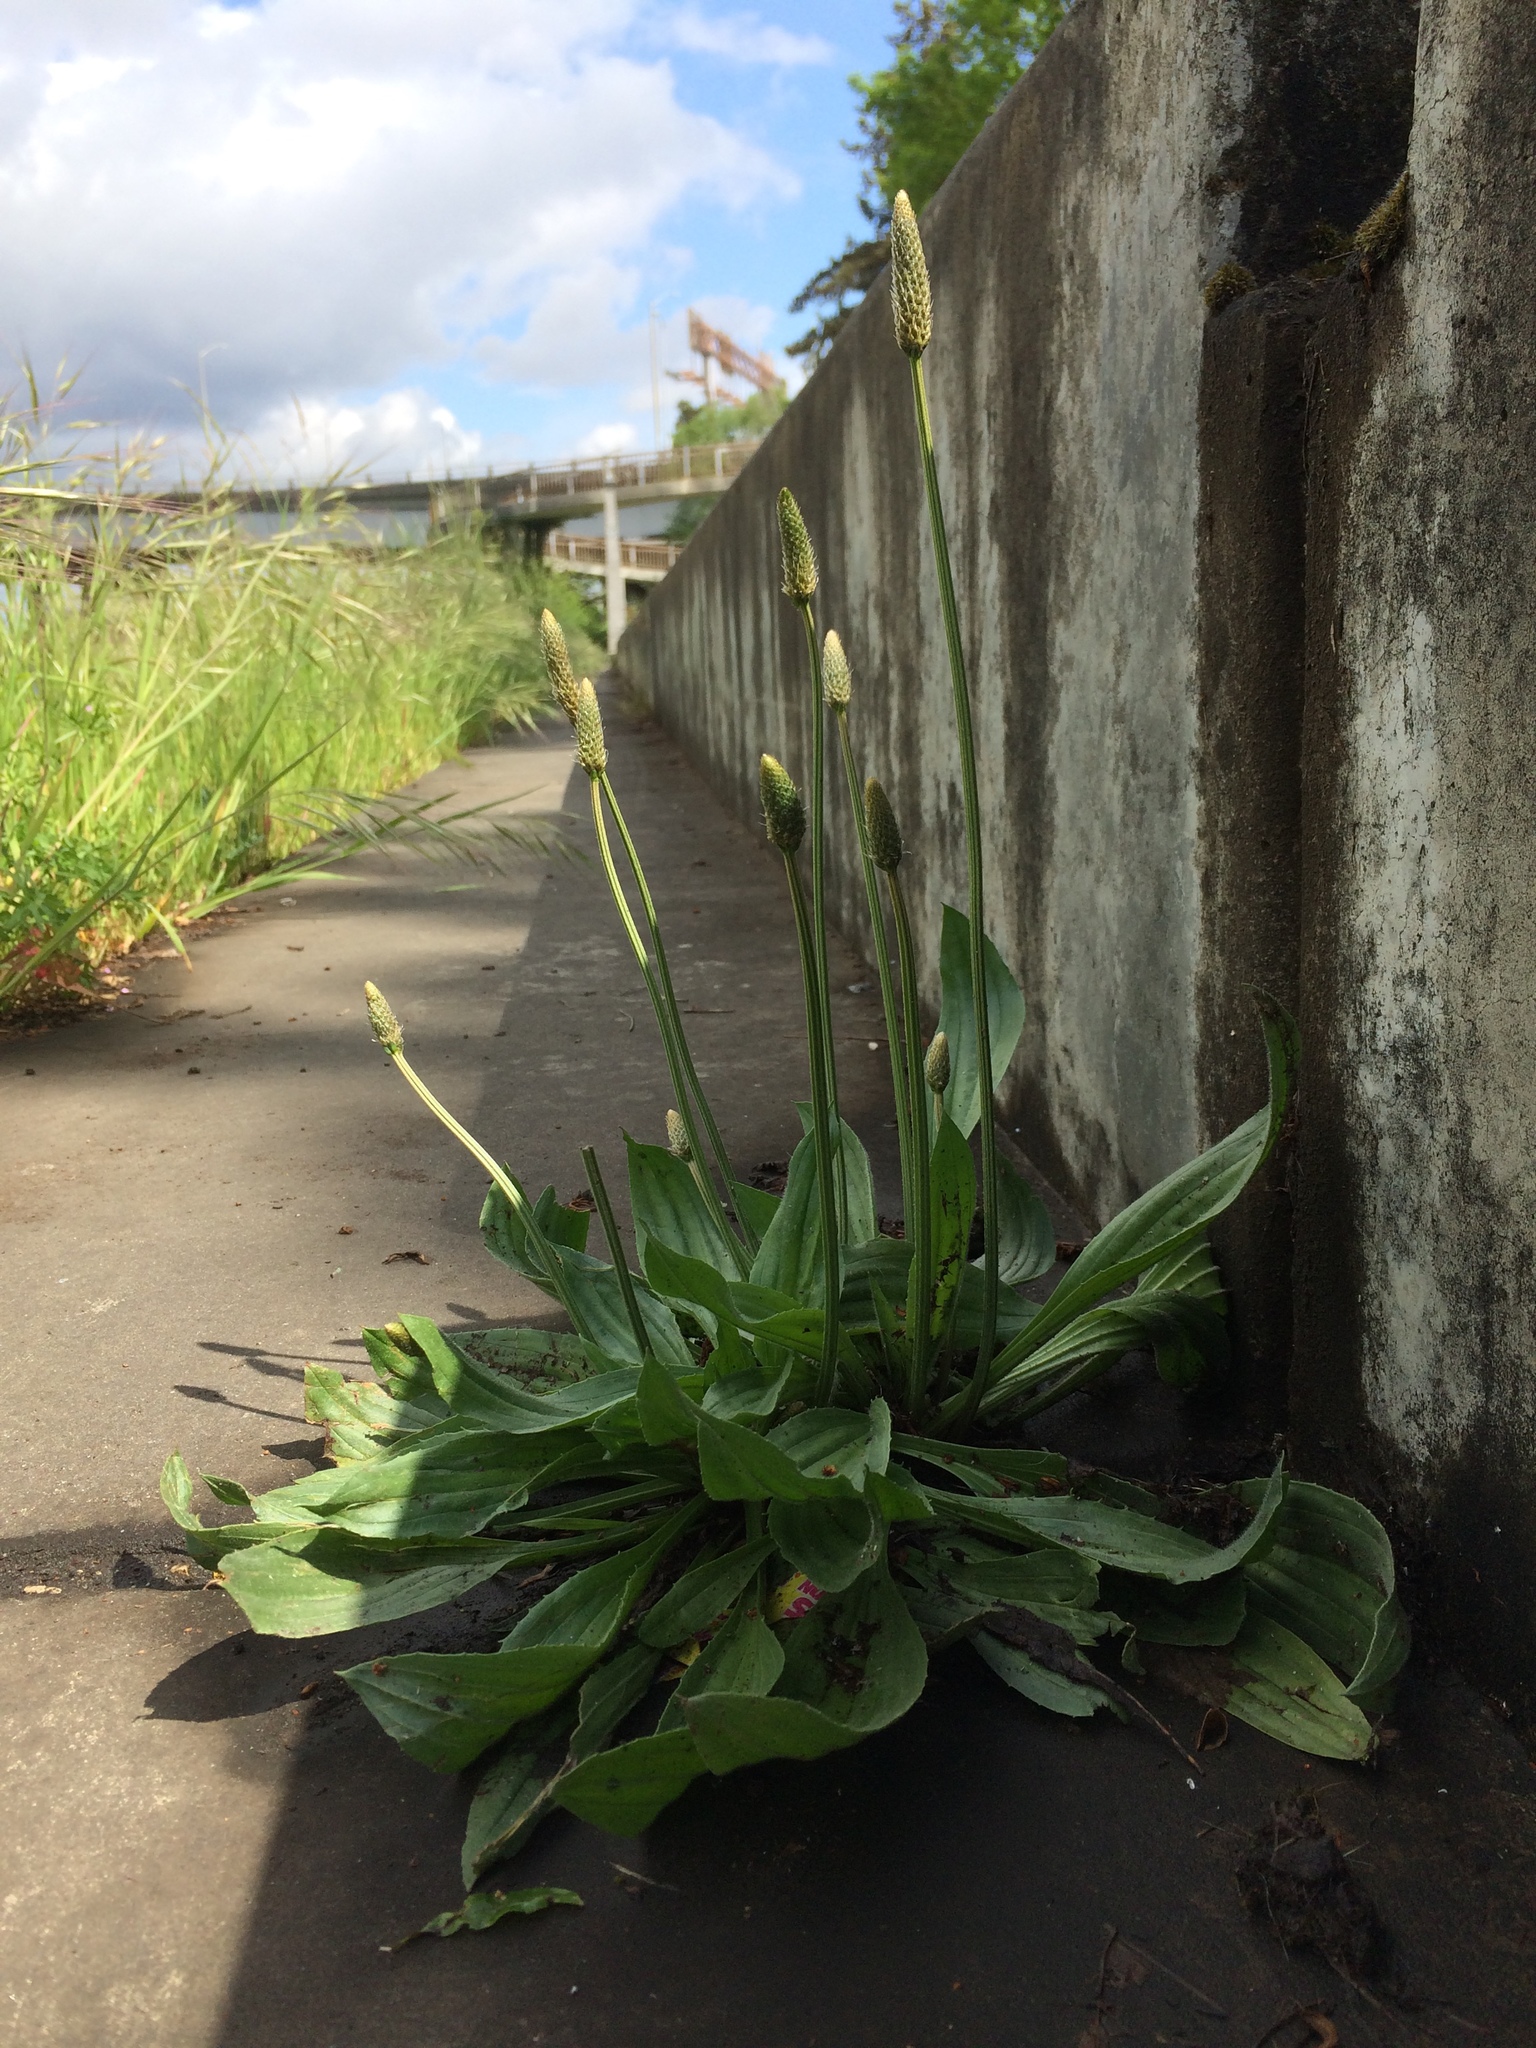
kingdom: Plantae
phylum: Tracheophyta
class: Magnoliopsida
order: Lamiales
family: Plantaginaceae
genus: Plantago
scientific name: Plantago lanceolata
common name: Ribwort plantain
